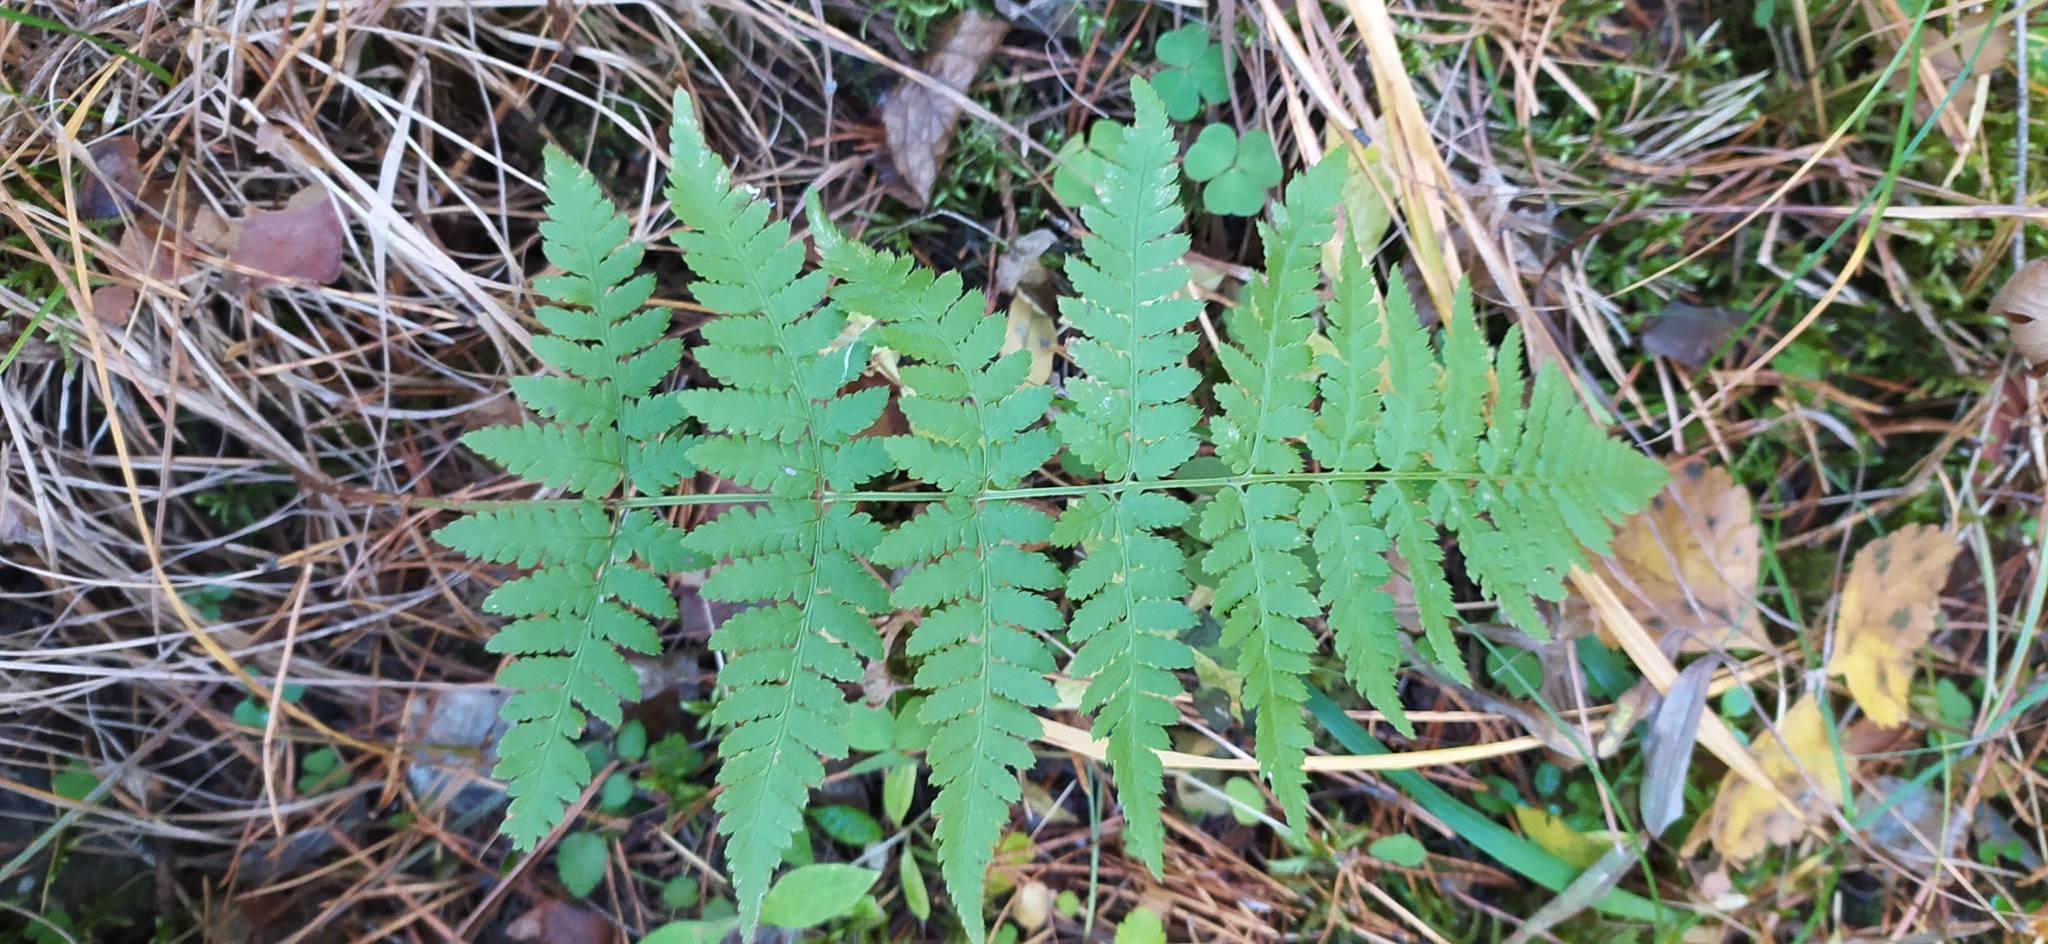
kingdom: Plantae
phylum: Tracheophyta
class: Polypodiopsida
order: Polypodiales
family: Dryopteridaceae
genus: Dryopteris
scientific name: Dryopteris carthusiana
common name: Narrow buckler-fern
